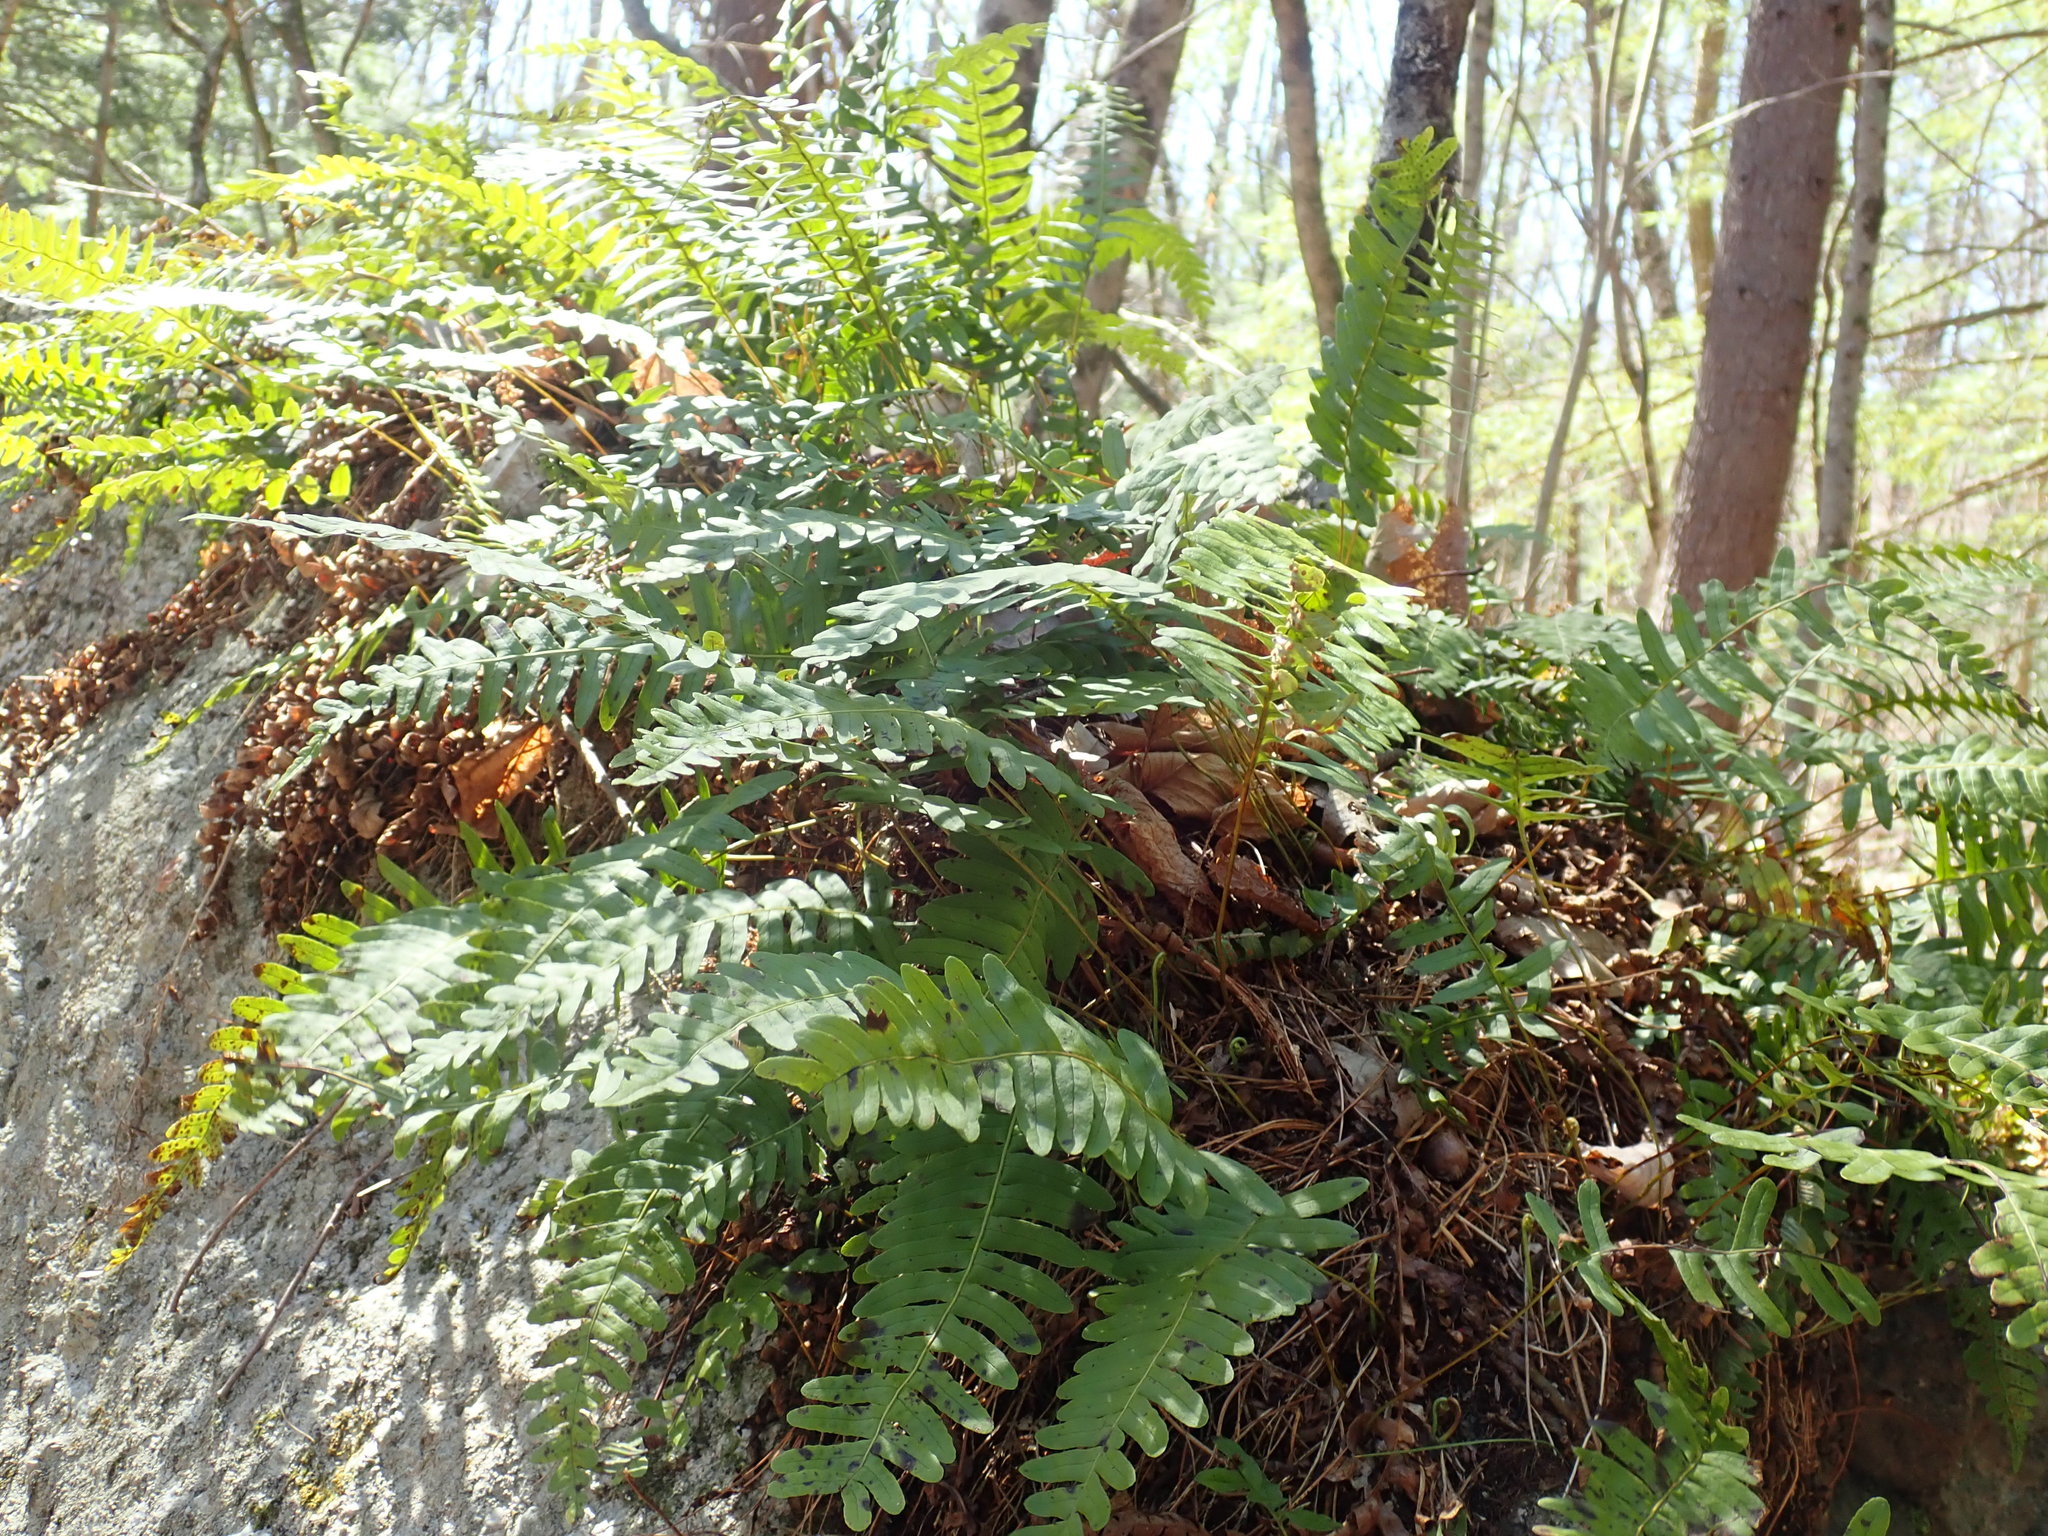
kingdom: Plantae
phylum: Tracheophyta
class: Polypodiopsida
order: Polypodiales
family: Polypodiaceae
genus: Polypodium
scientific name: Polypodium
